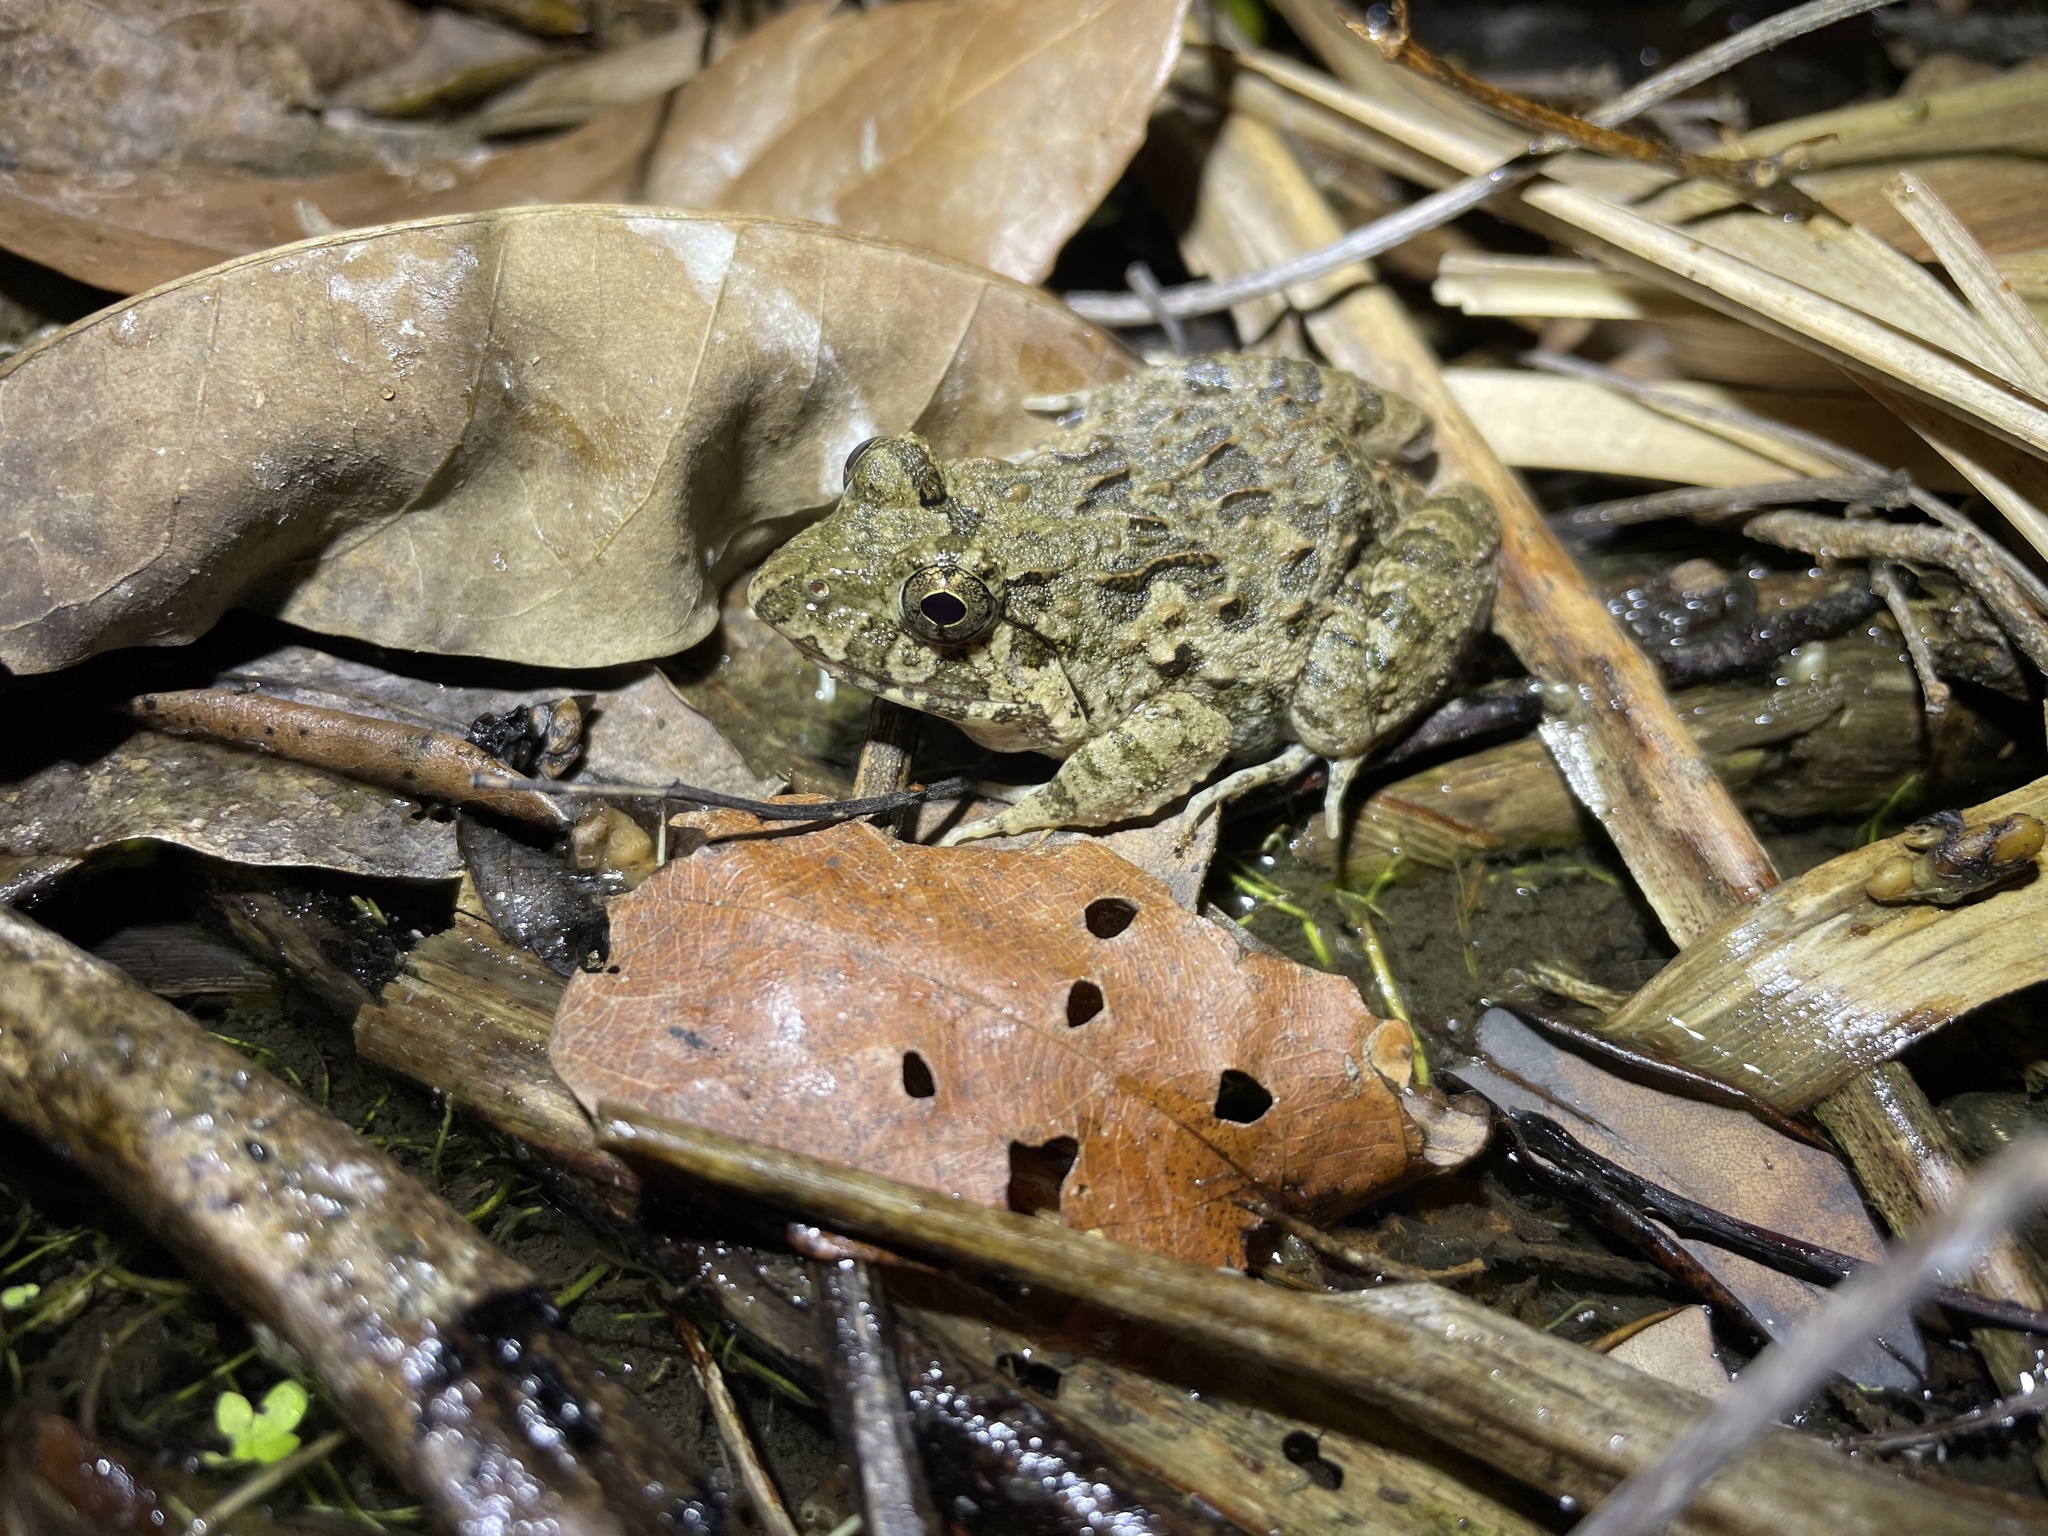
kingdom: Animalia
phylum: Chordata
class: Amphibia
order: Anura
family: Dicroglossidae
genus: Fejervarya
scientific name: Fejervarya multistriata
